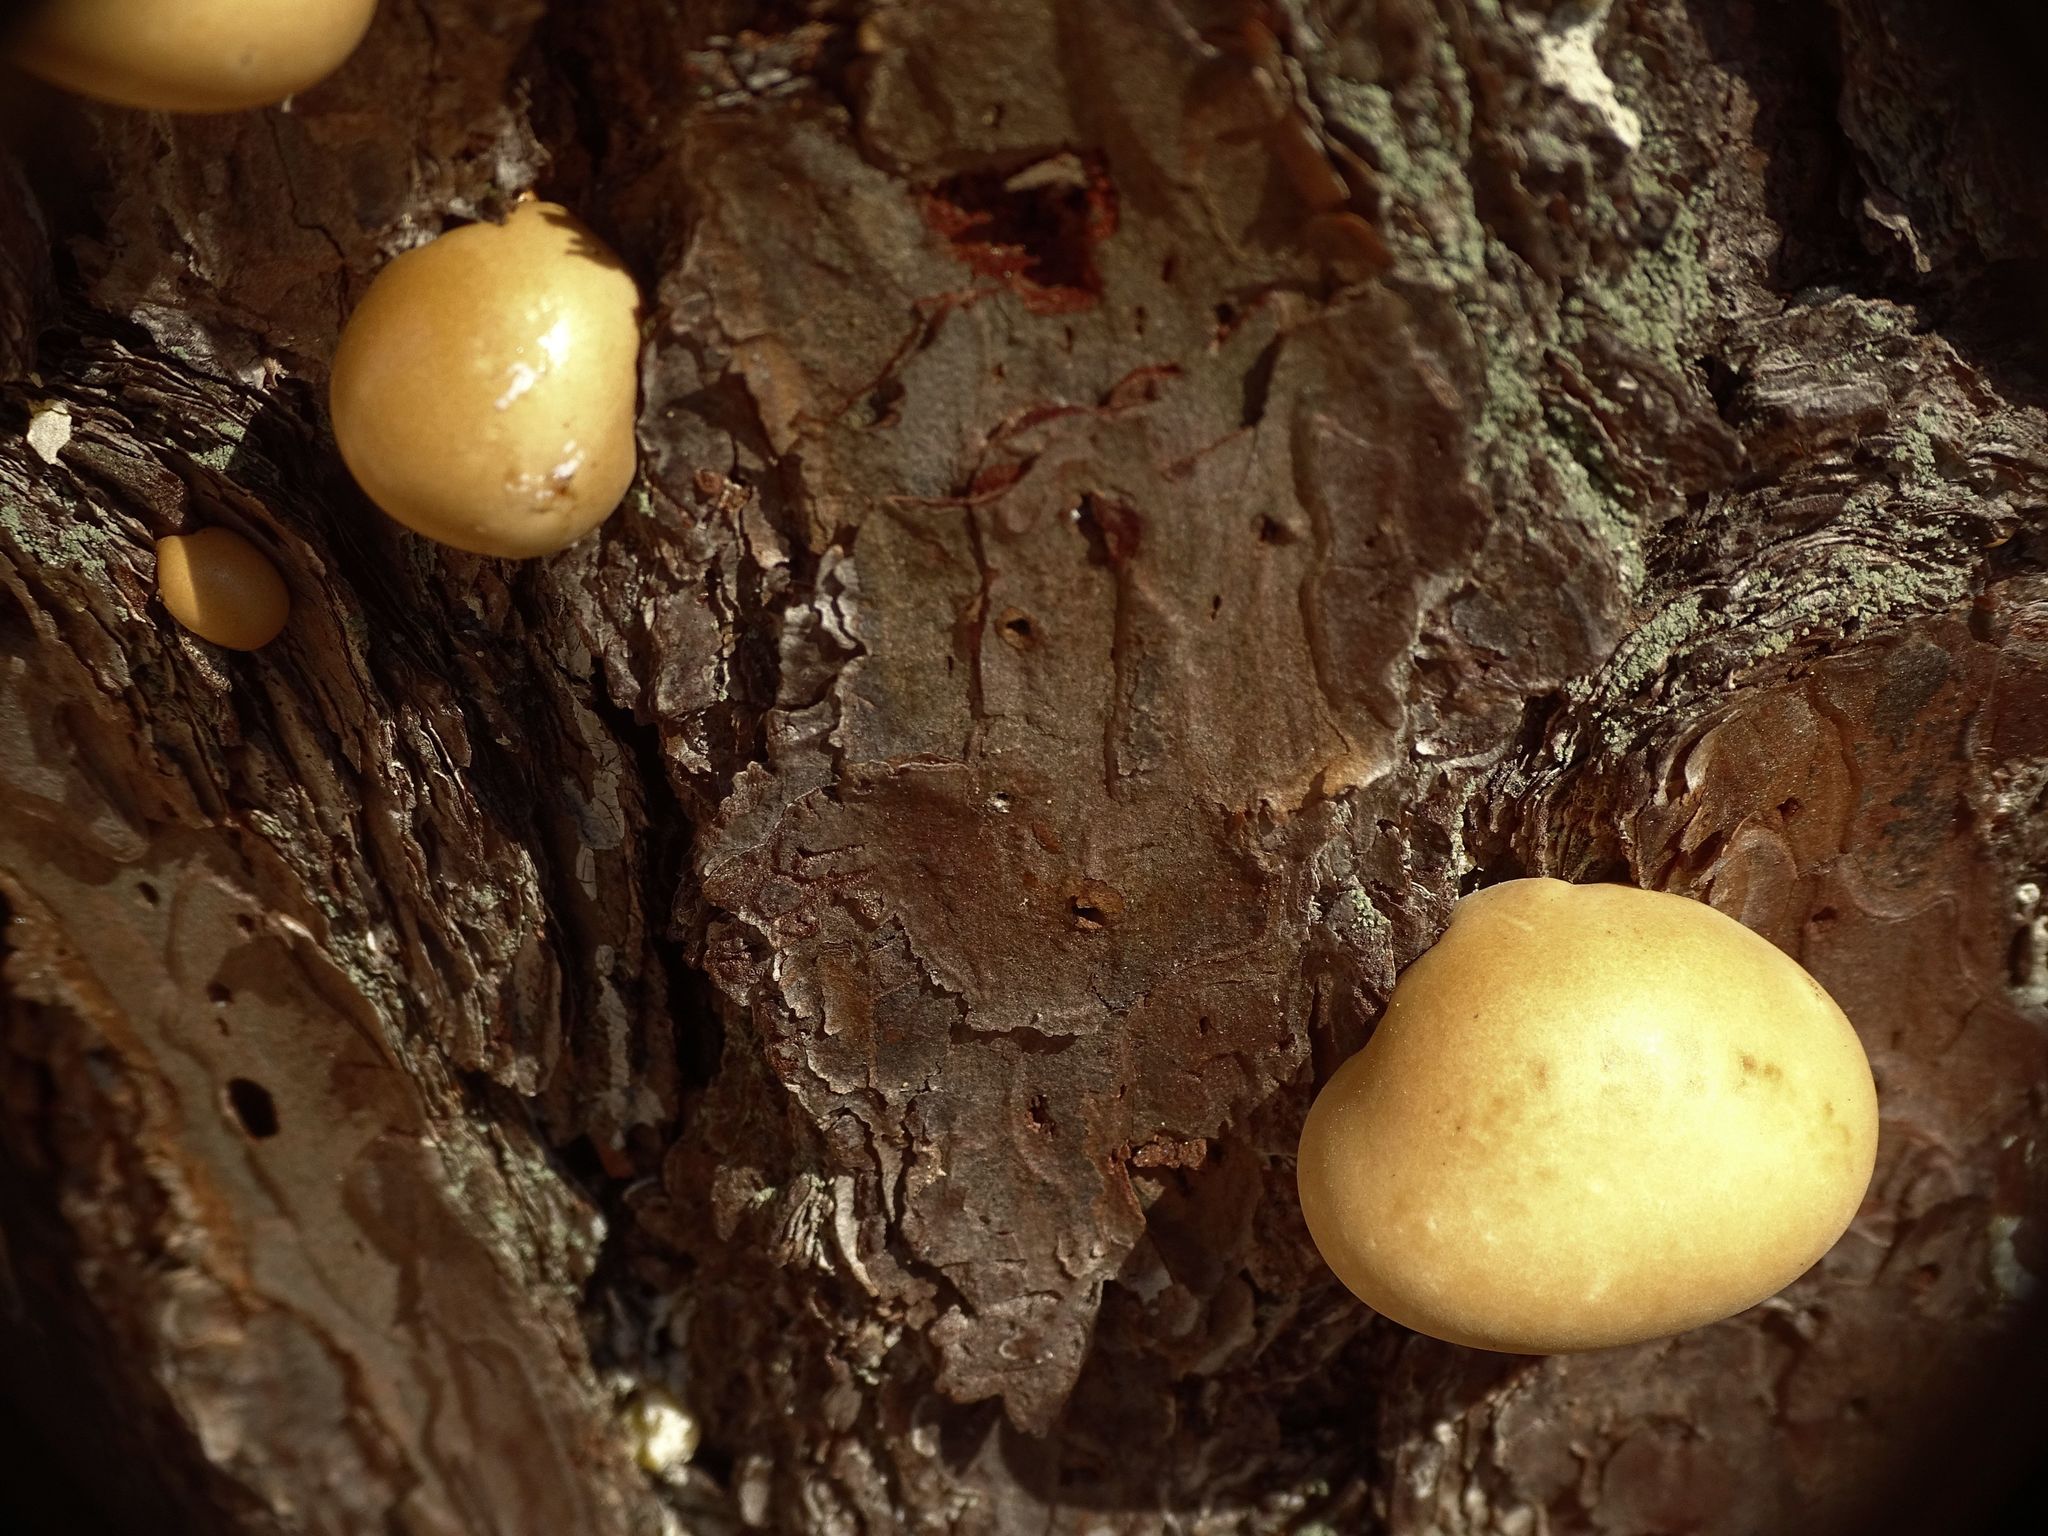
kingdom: Fungi
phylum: Basidiomycota
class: Agaricomycetes
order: Polyporales
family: Polyporaceae
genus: Cryptoporus
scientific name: Cryptoporus volvatus
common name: Veiled polypore
